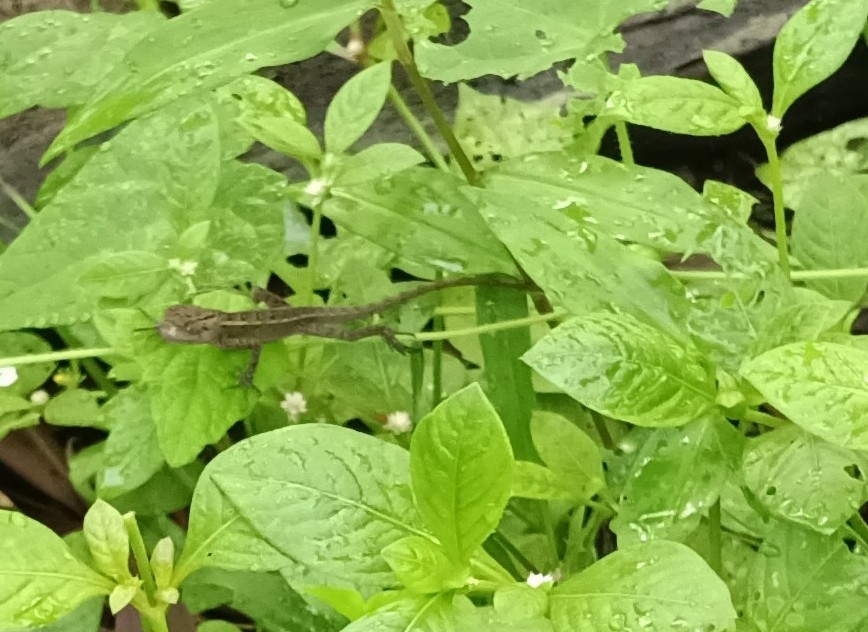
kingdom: Animalia
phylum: Chordata
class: Squamata
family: Agamidae
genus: Calotes
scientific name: Calotes versicolor
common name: Oriental garden lizard
